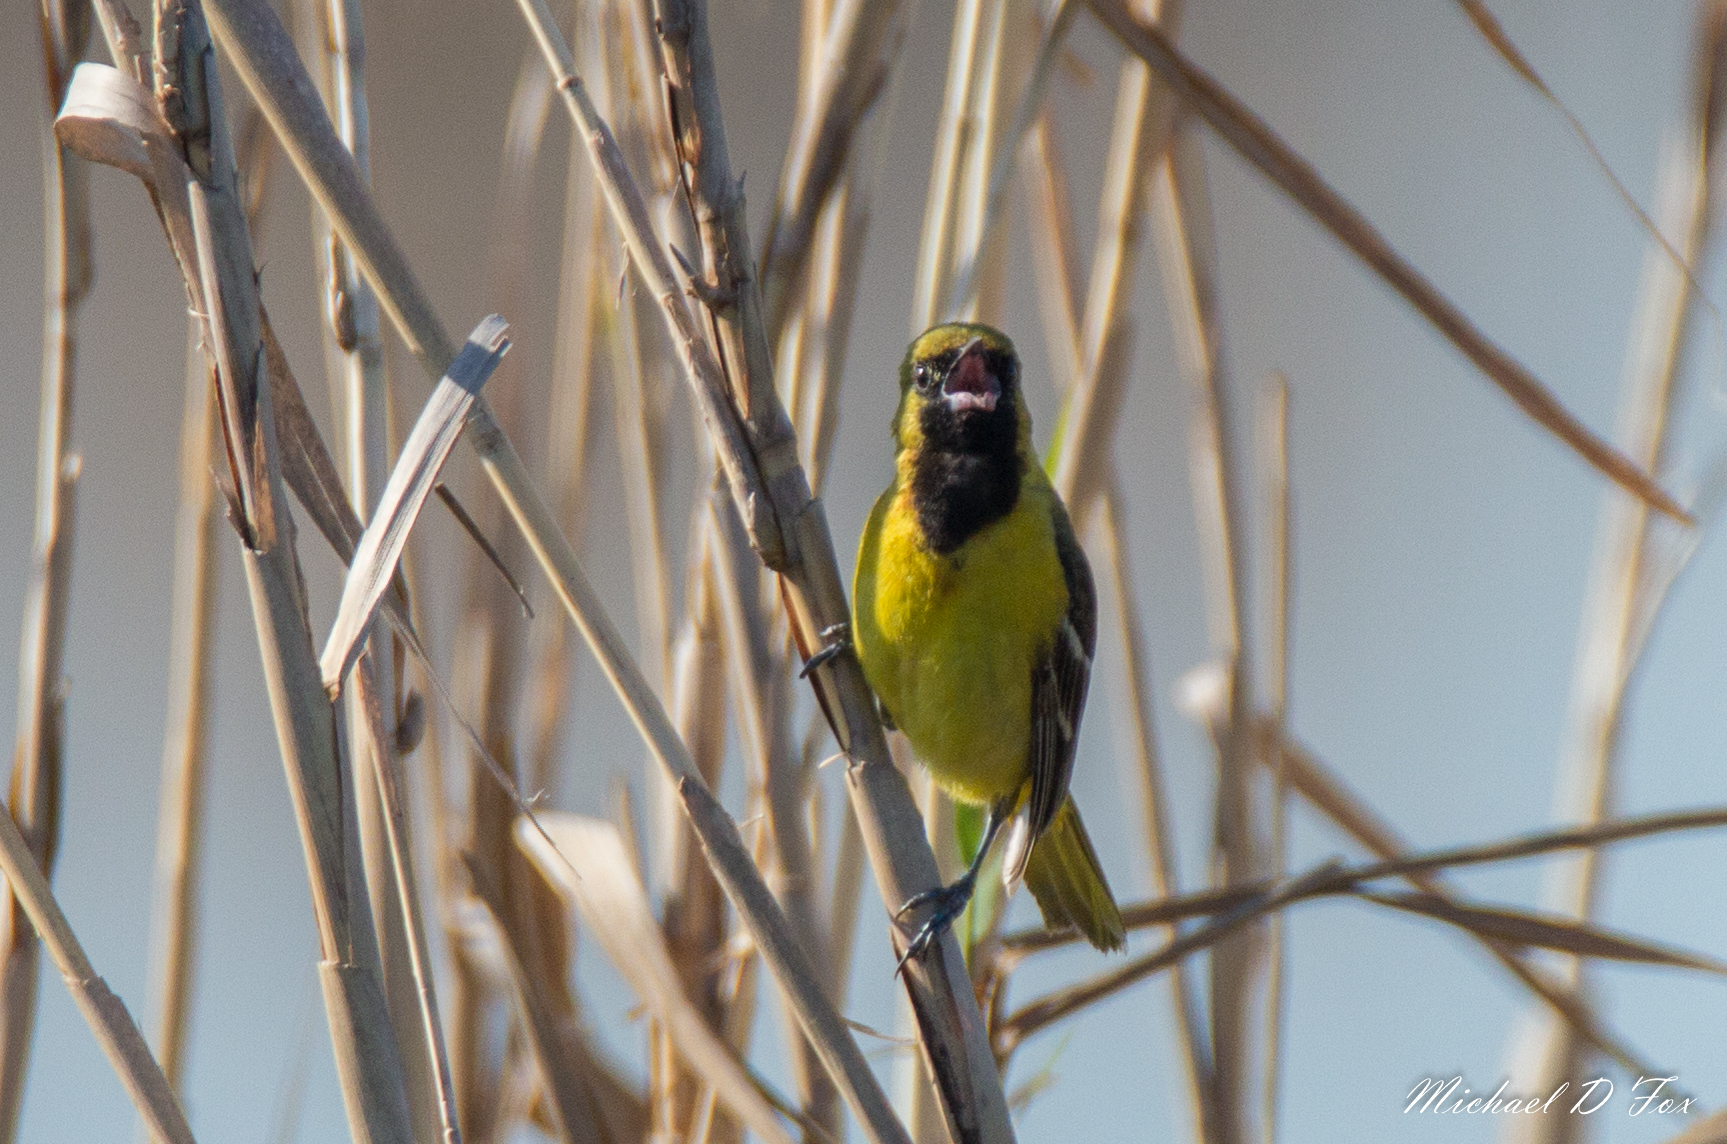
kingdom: Animalia
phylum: Chordata
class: Aves
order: Passeriformes
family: Icteridae
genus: Icterus
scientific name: Icterus spurius
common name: Orchard oriole
